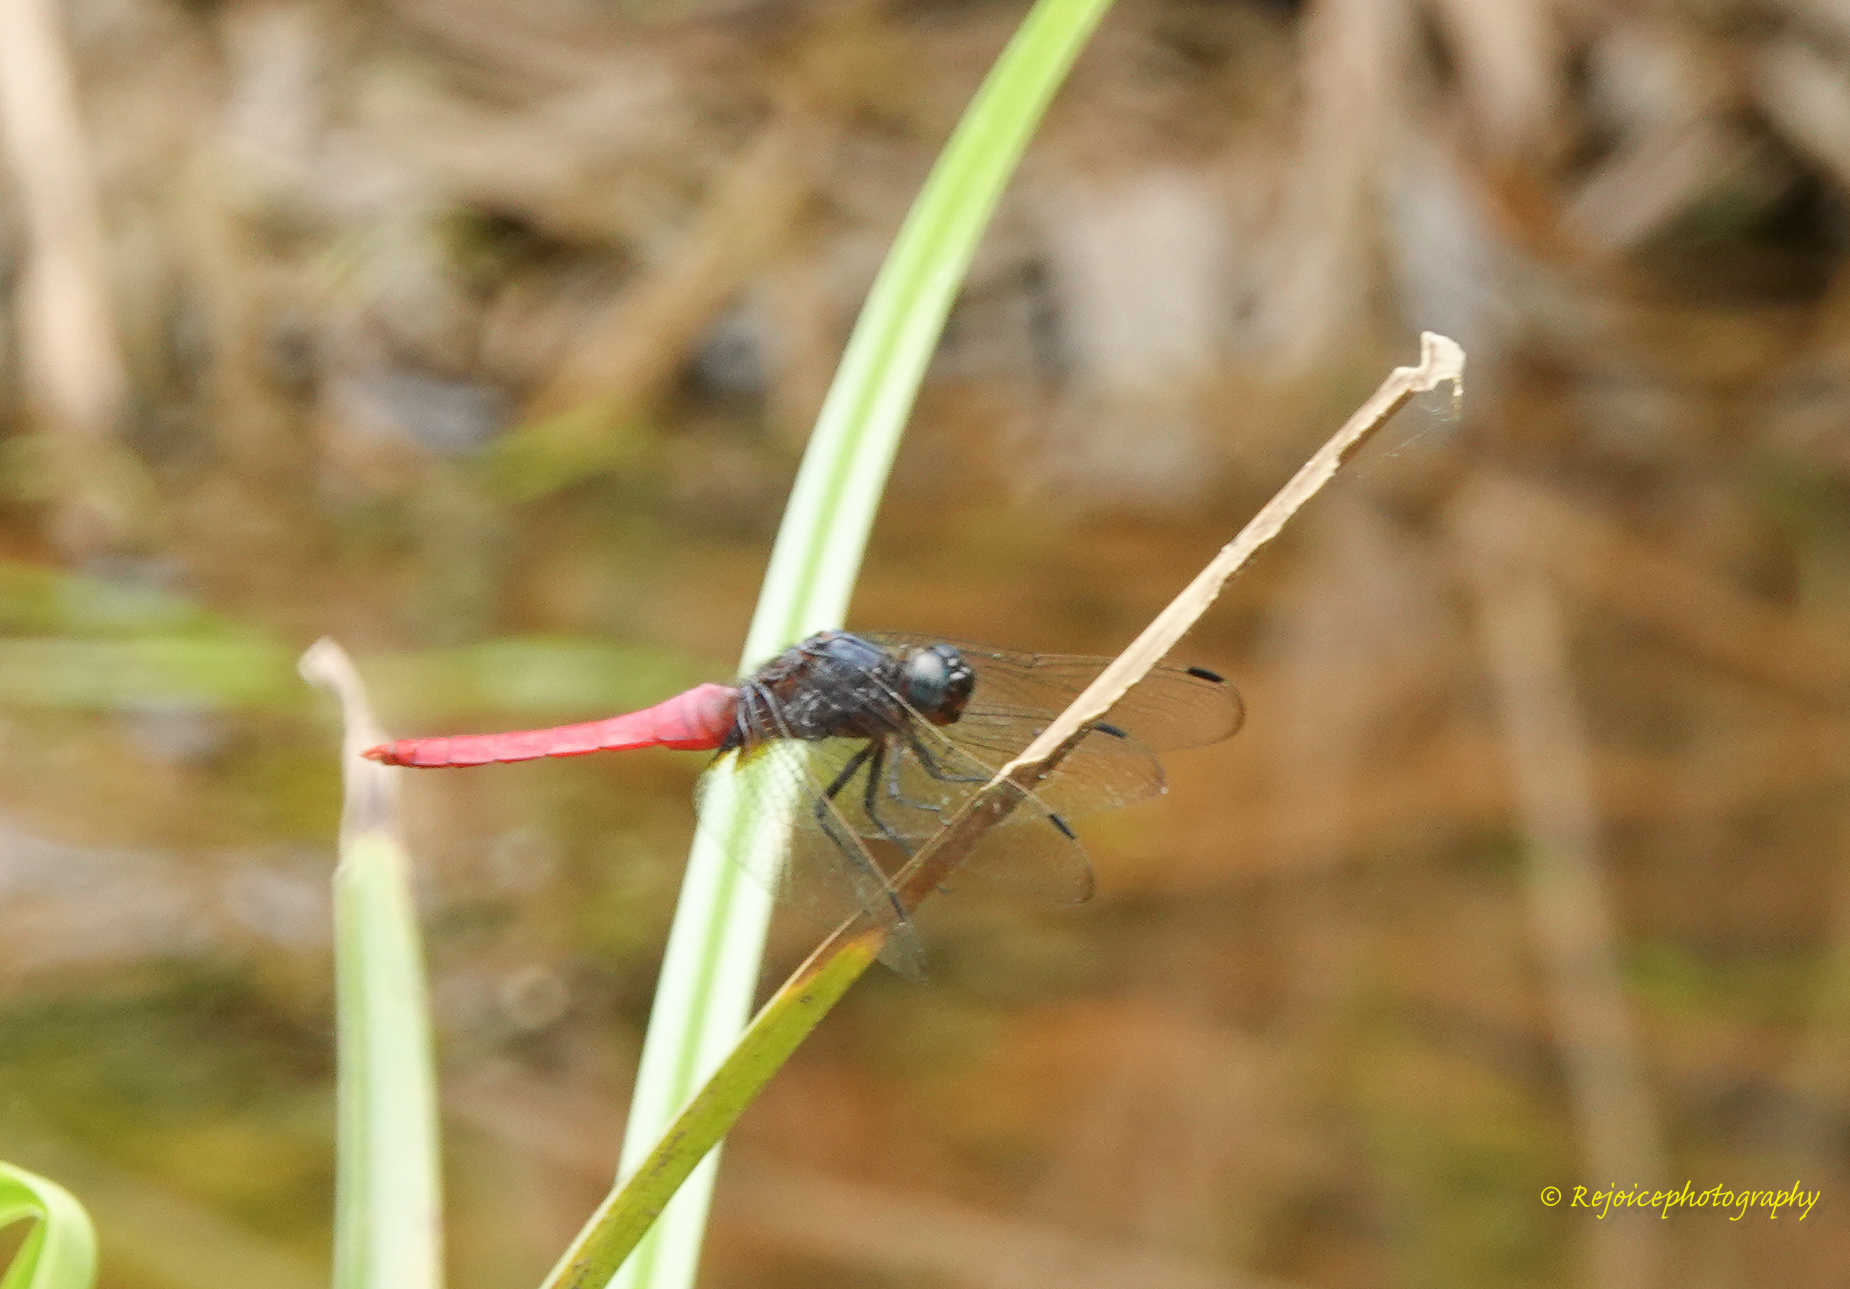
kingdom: Animalia
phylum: Arthropoda
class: Insecta
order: Odonata
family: Libellulidae
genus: Orthetrum
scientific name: Orthetrum pruinosum
